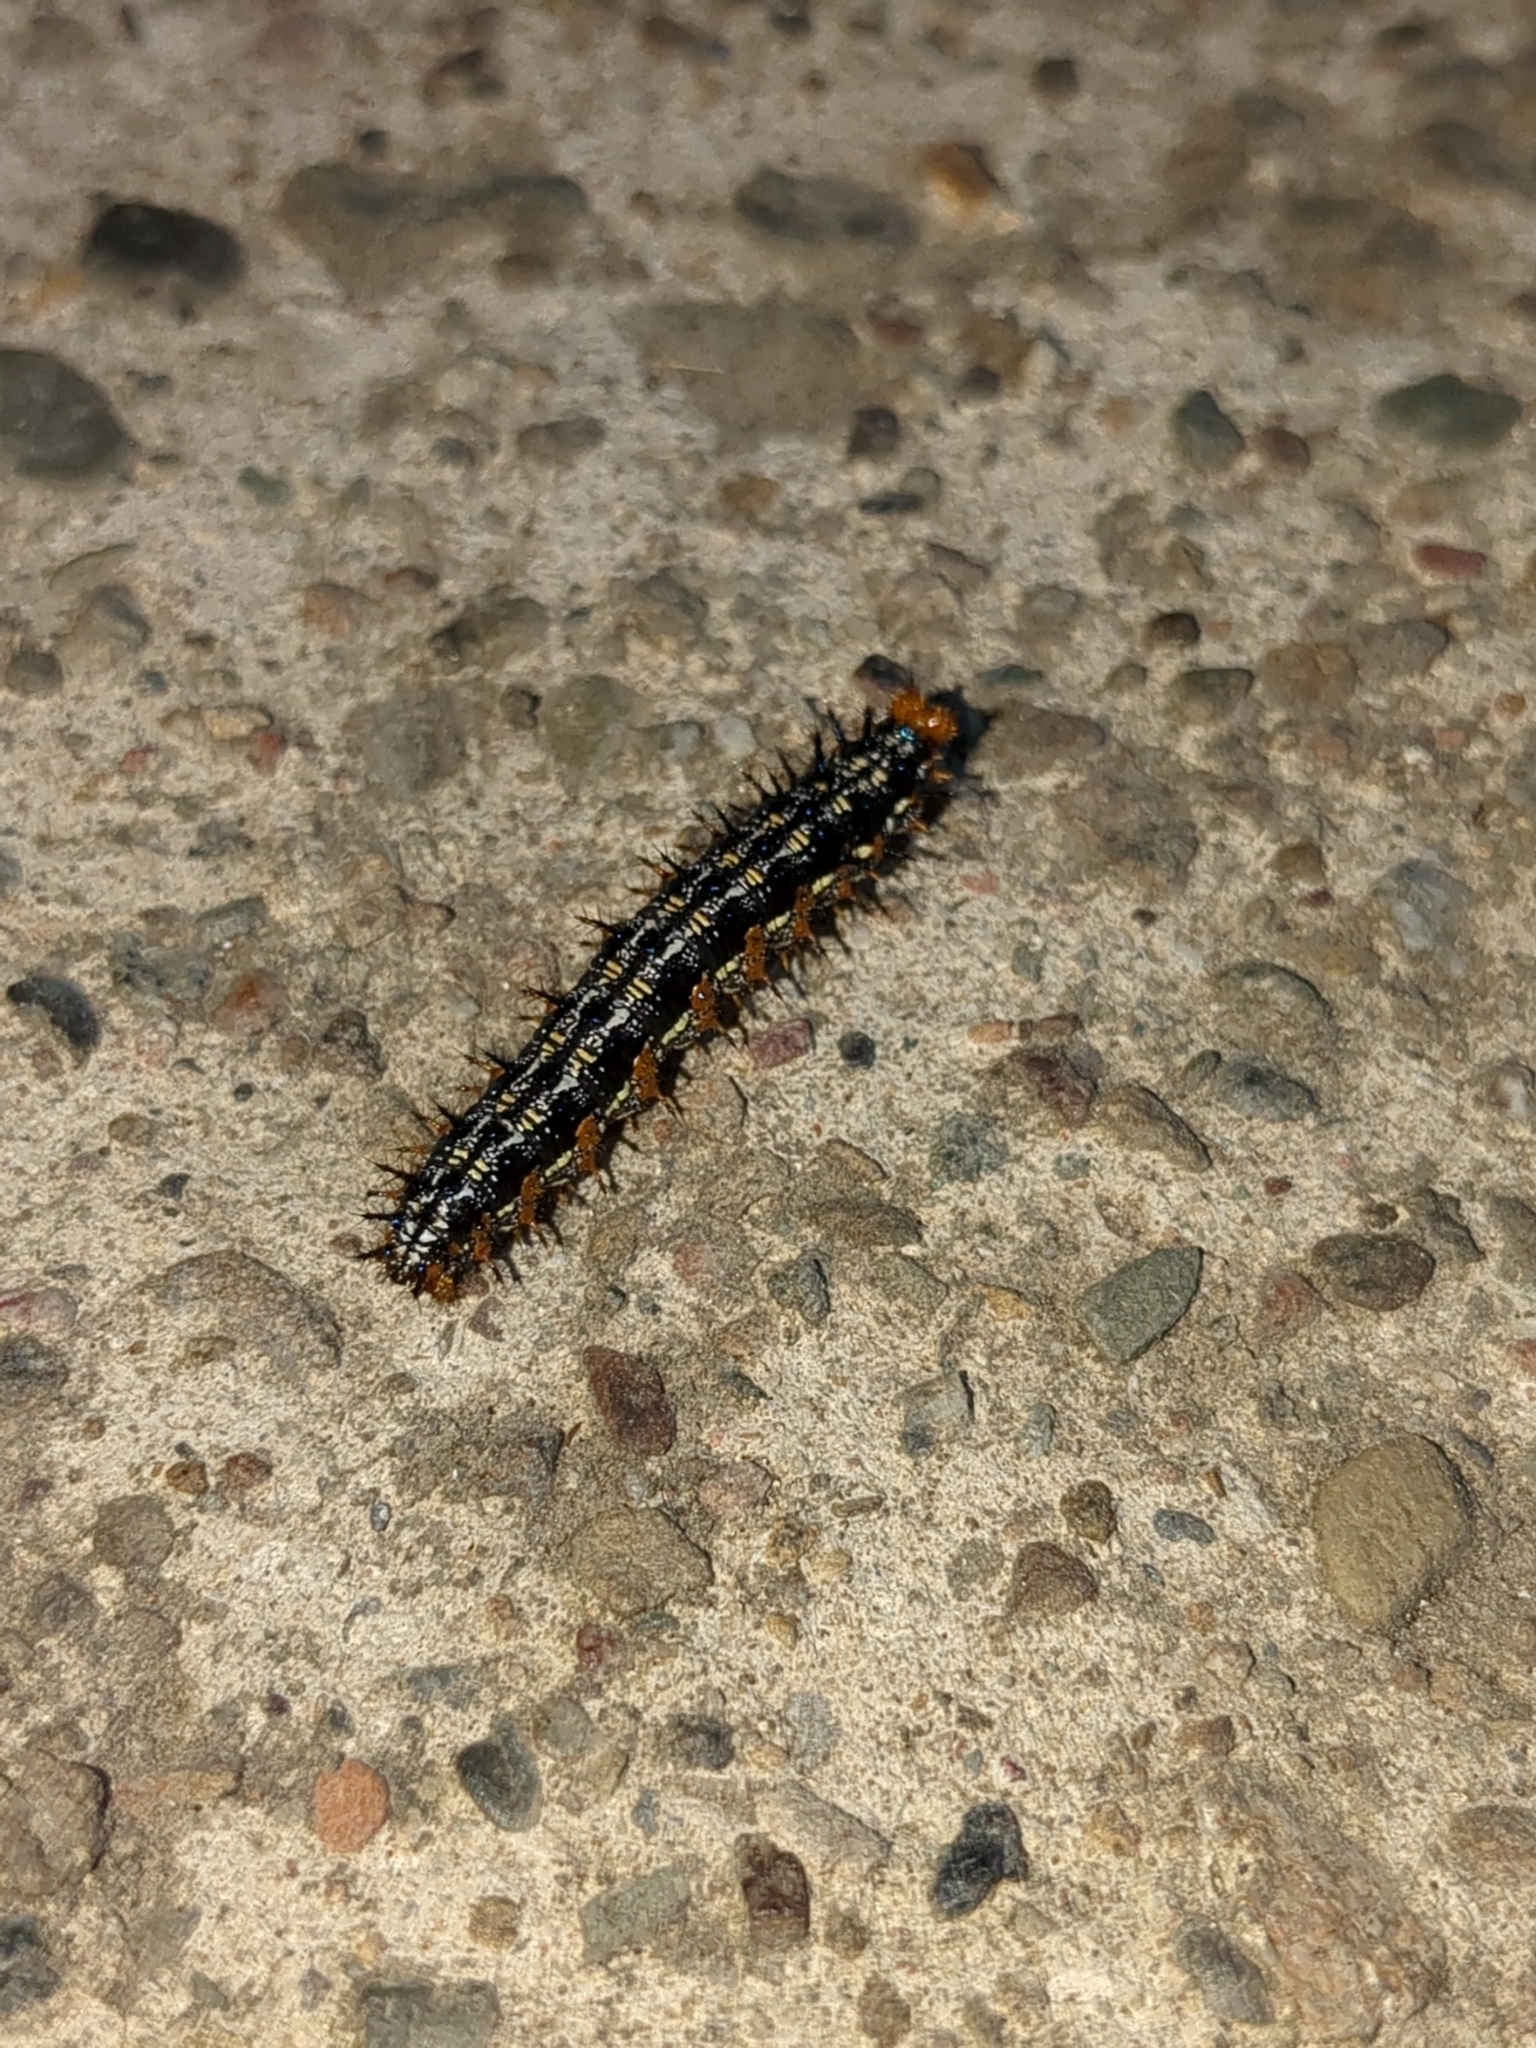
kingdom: Animalia
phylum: Arthropoda
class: Insecta
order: Lepidoptera
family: Nymphalidae
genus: Junonia
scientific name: Junonia grisea
